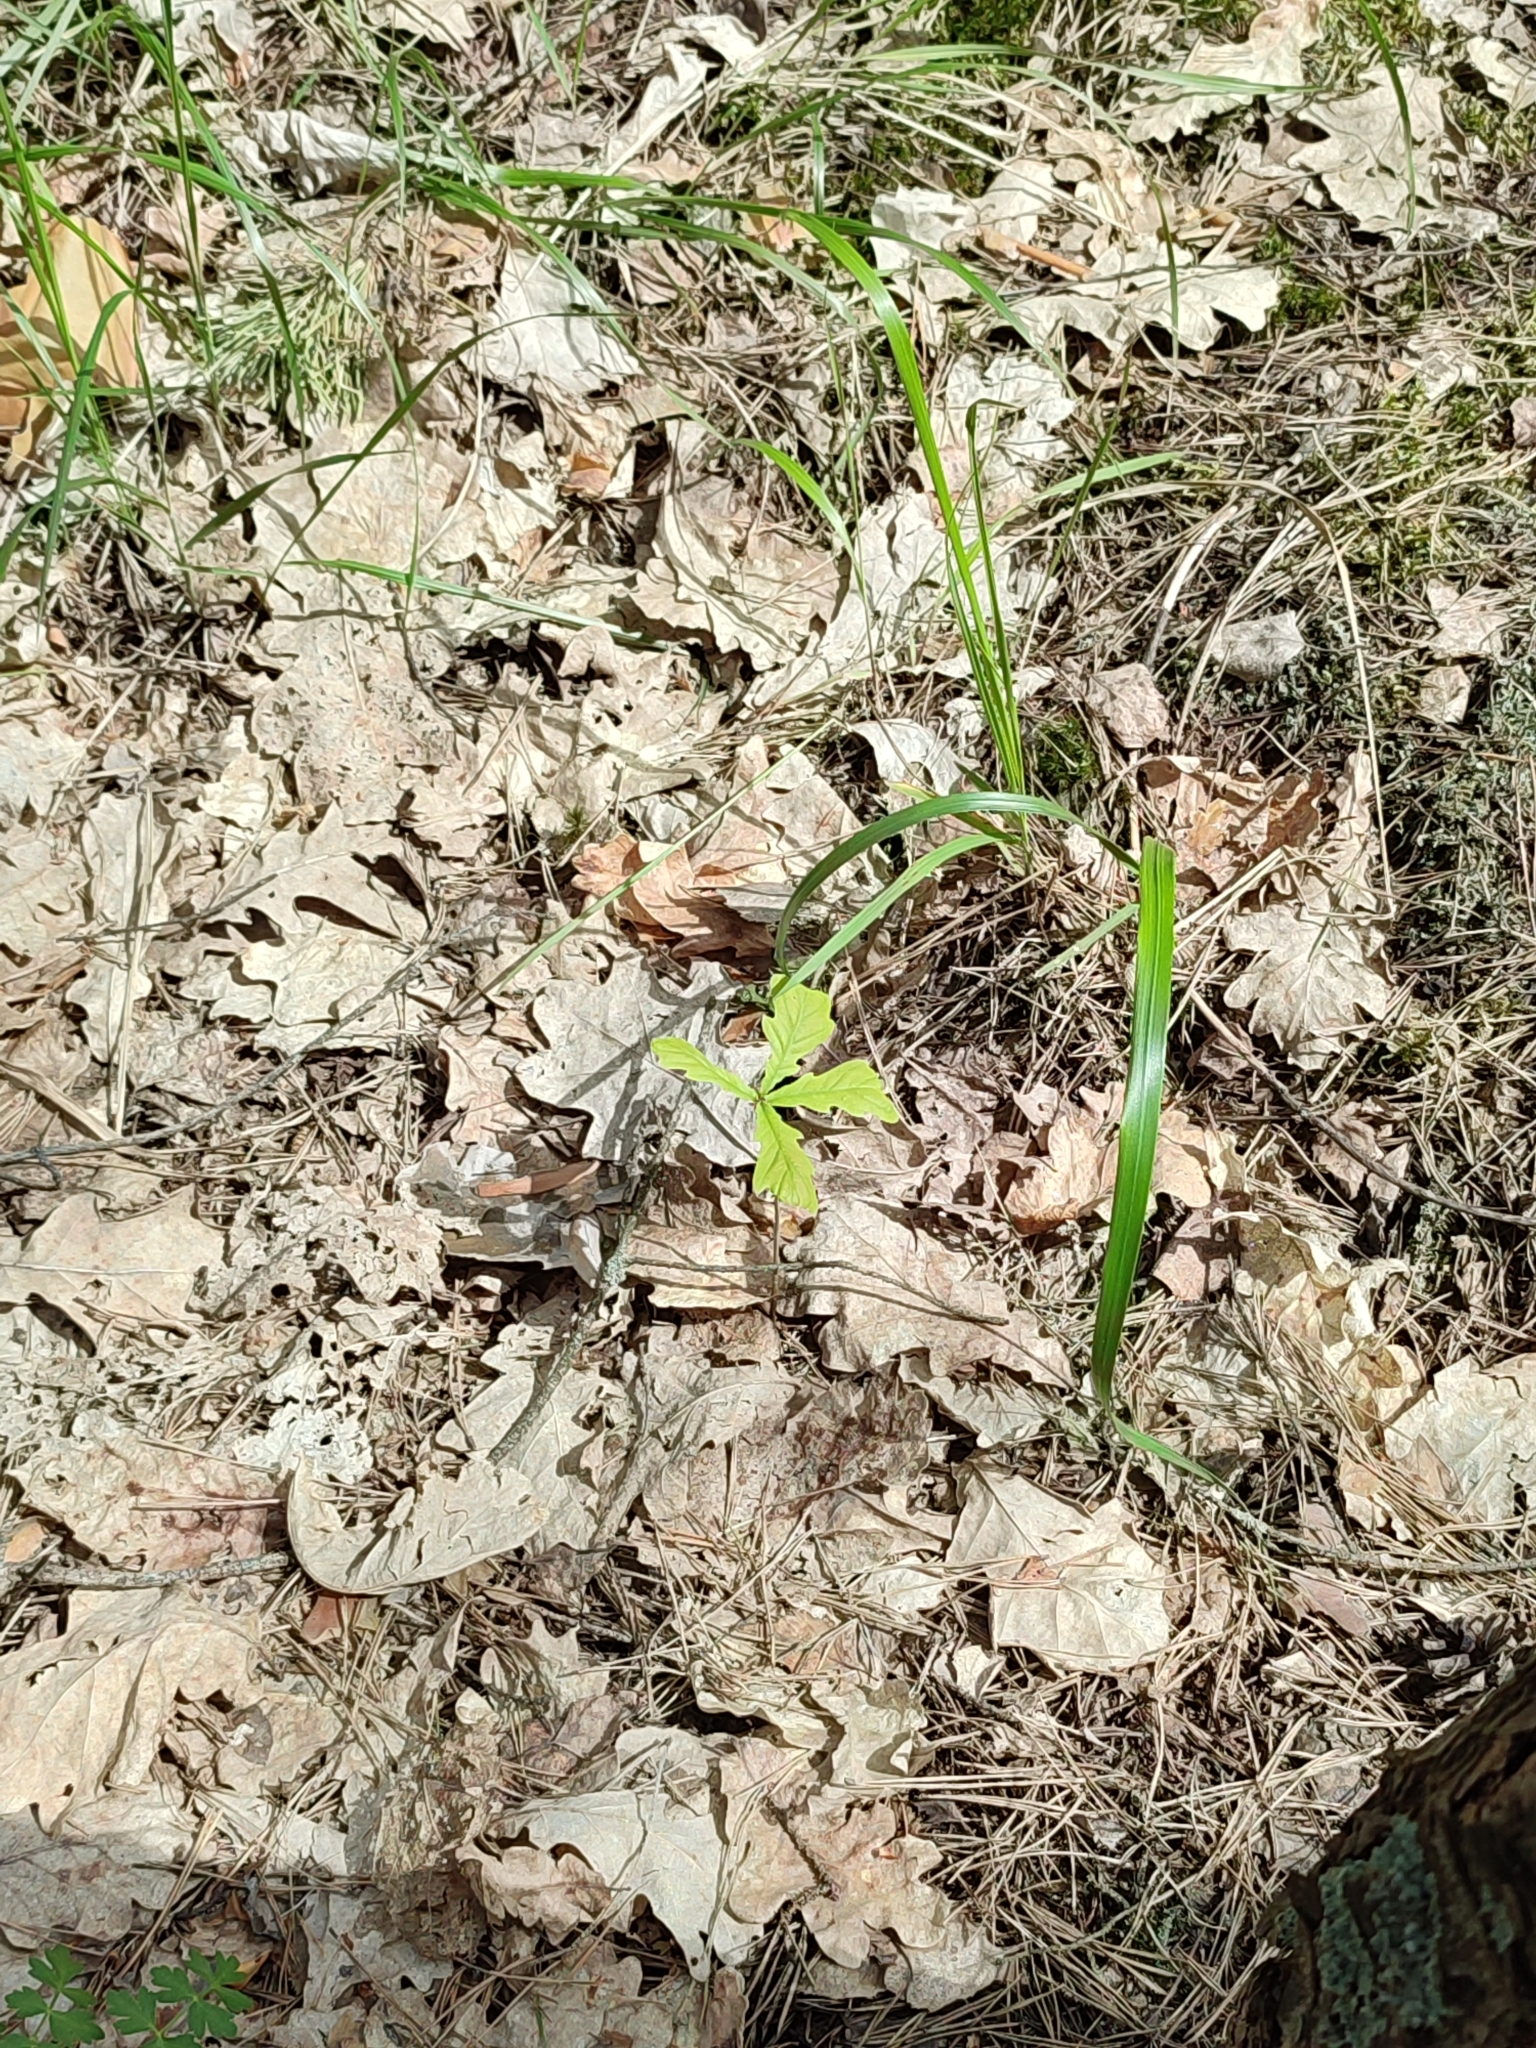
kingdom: Plantae
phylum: Tracheophyta
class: Magnoliopsida
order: Fagales
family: Fagaceae
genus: Quercus
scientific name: Quercus robur
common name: Pedunculate oak
